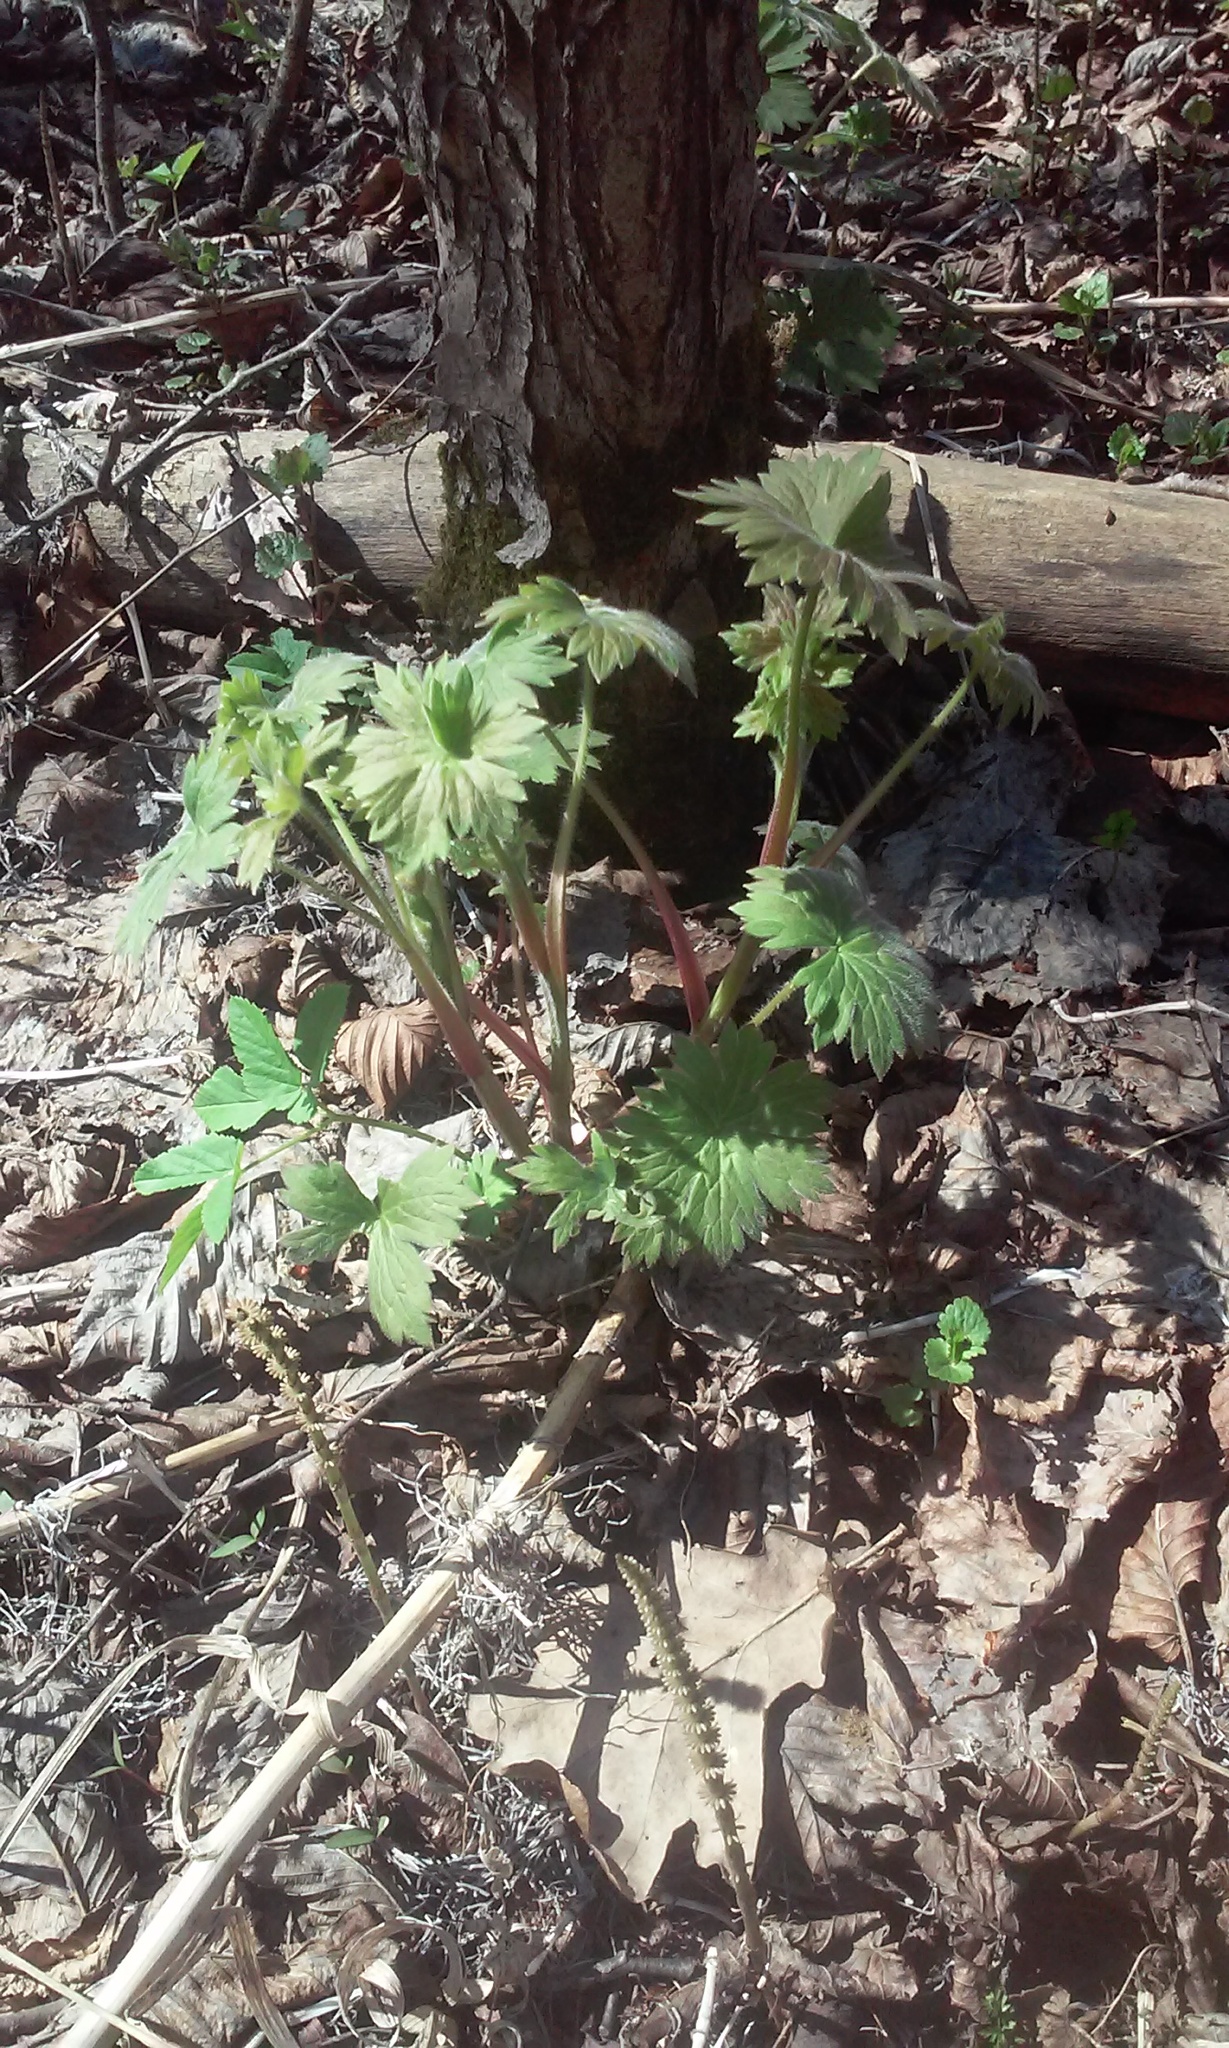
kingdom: Plantae
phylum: Tracheophyta
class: Magnoliopsida
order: Ranunculales
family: Ranunculaceae
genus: Aconitum
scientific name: Aconitum septentrionale
